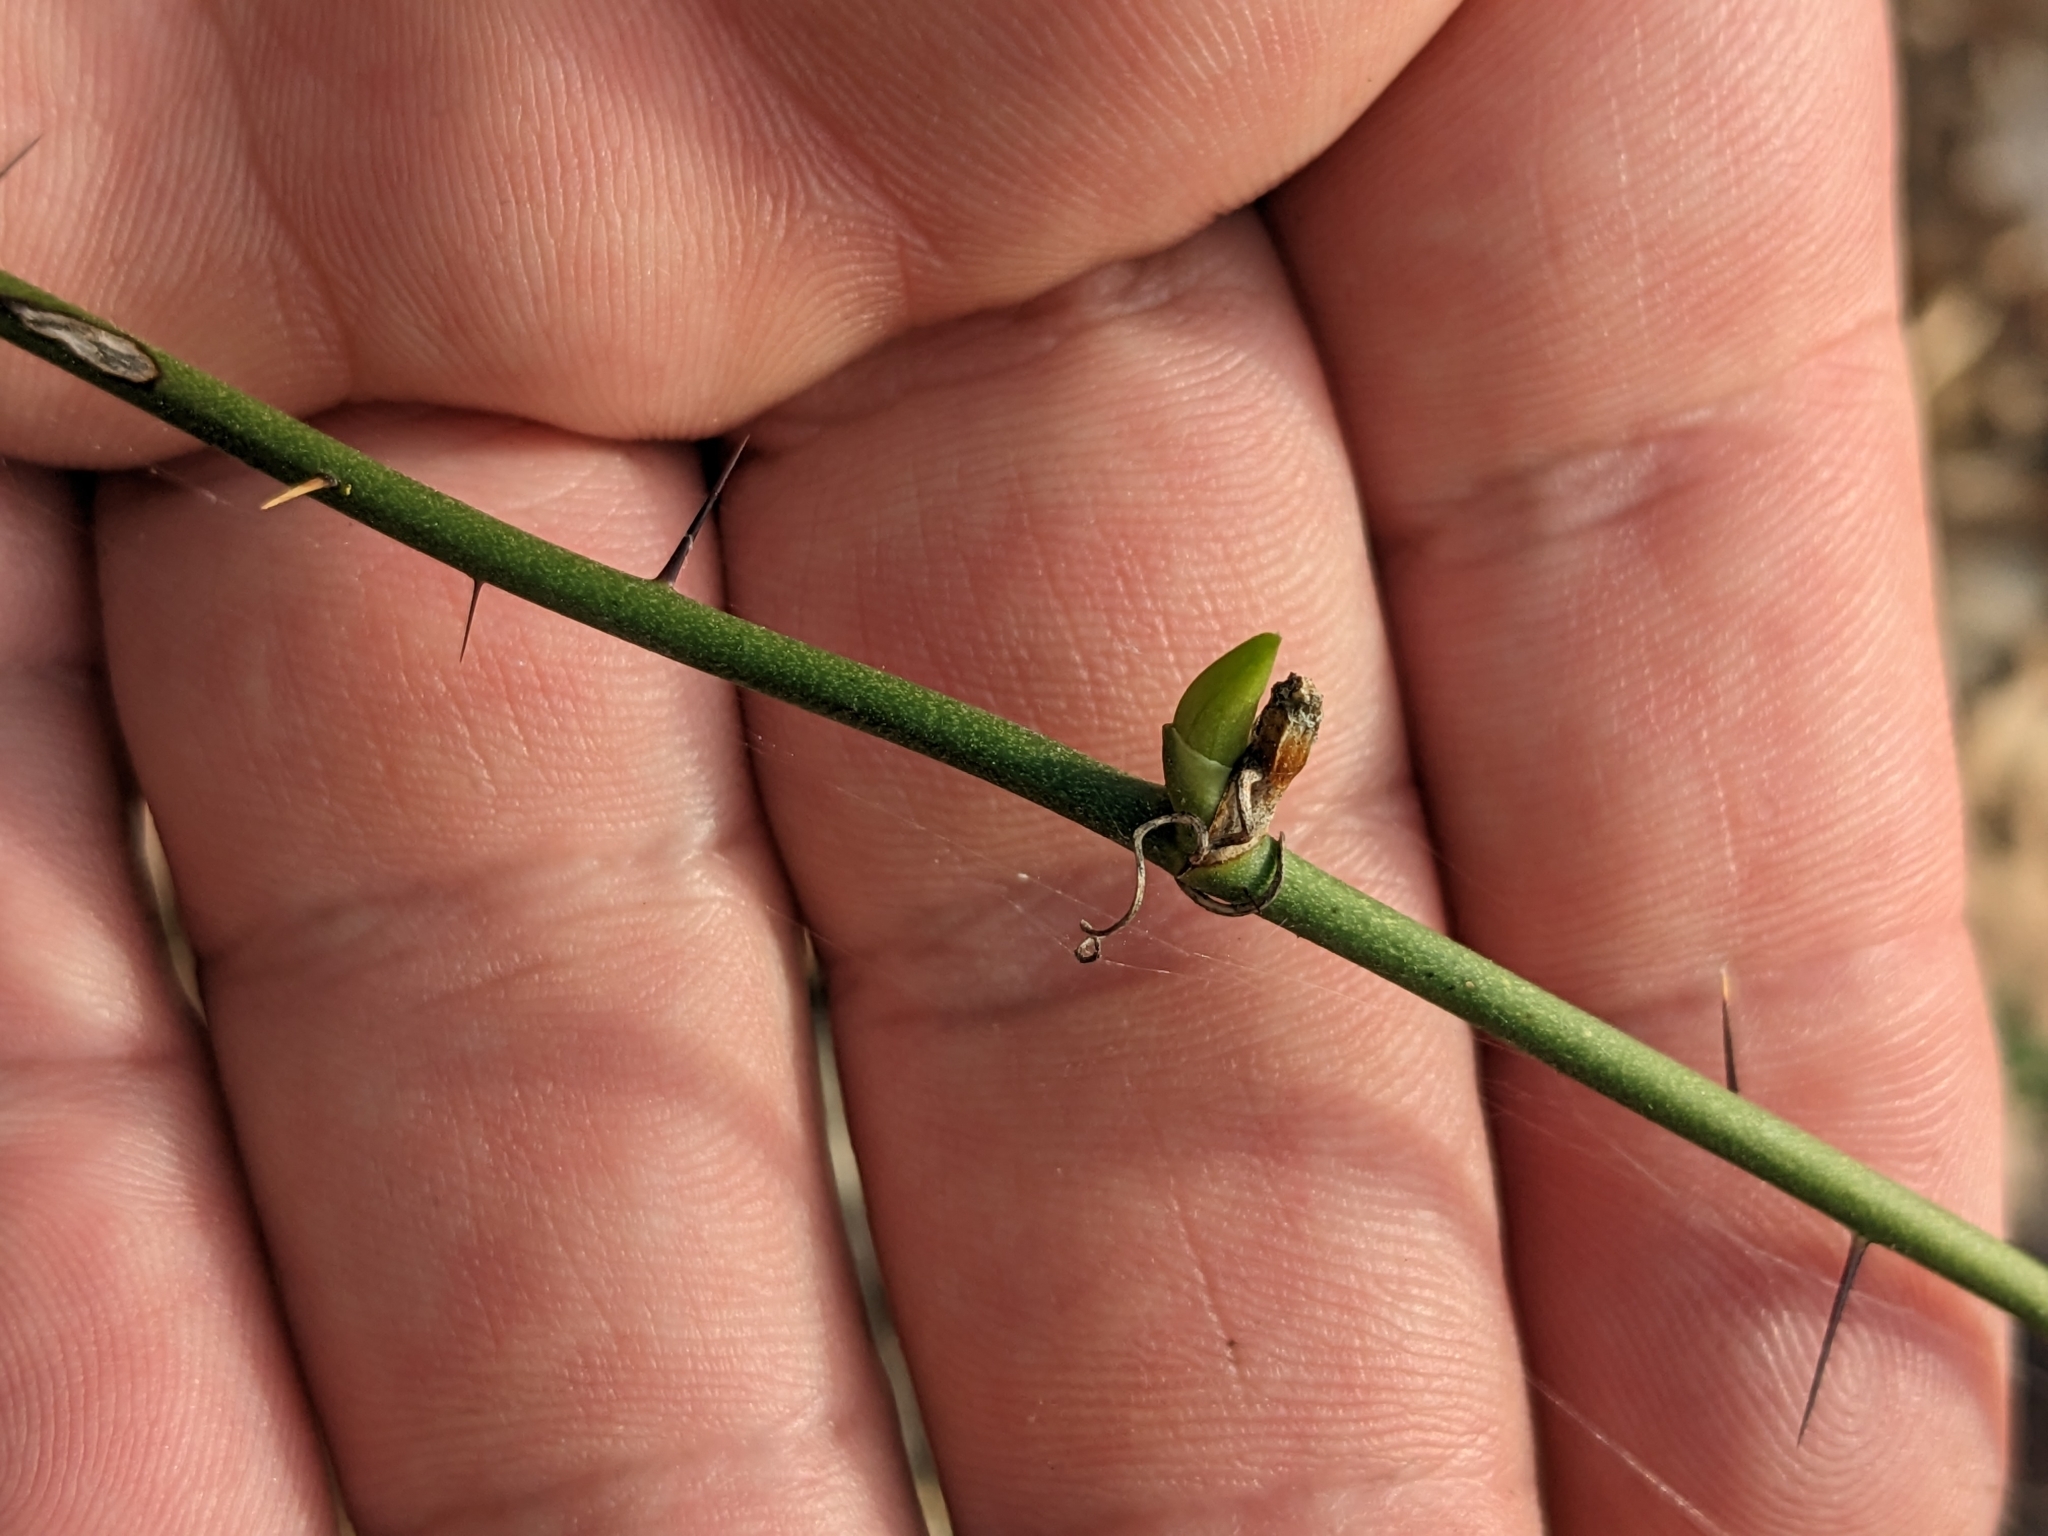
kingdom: Plantae
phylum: Tracheophyta
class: Liliopsida
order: Liliales
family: Smilacaceae
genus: Smilax
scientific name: Smilax tamnoides
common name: Hellfetter
